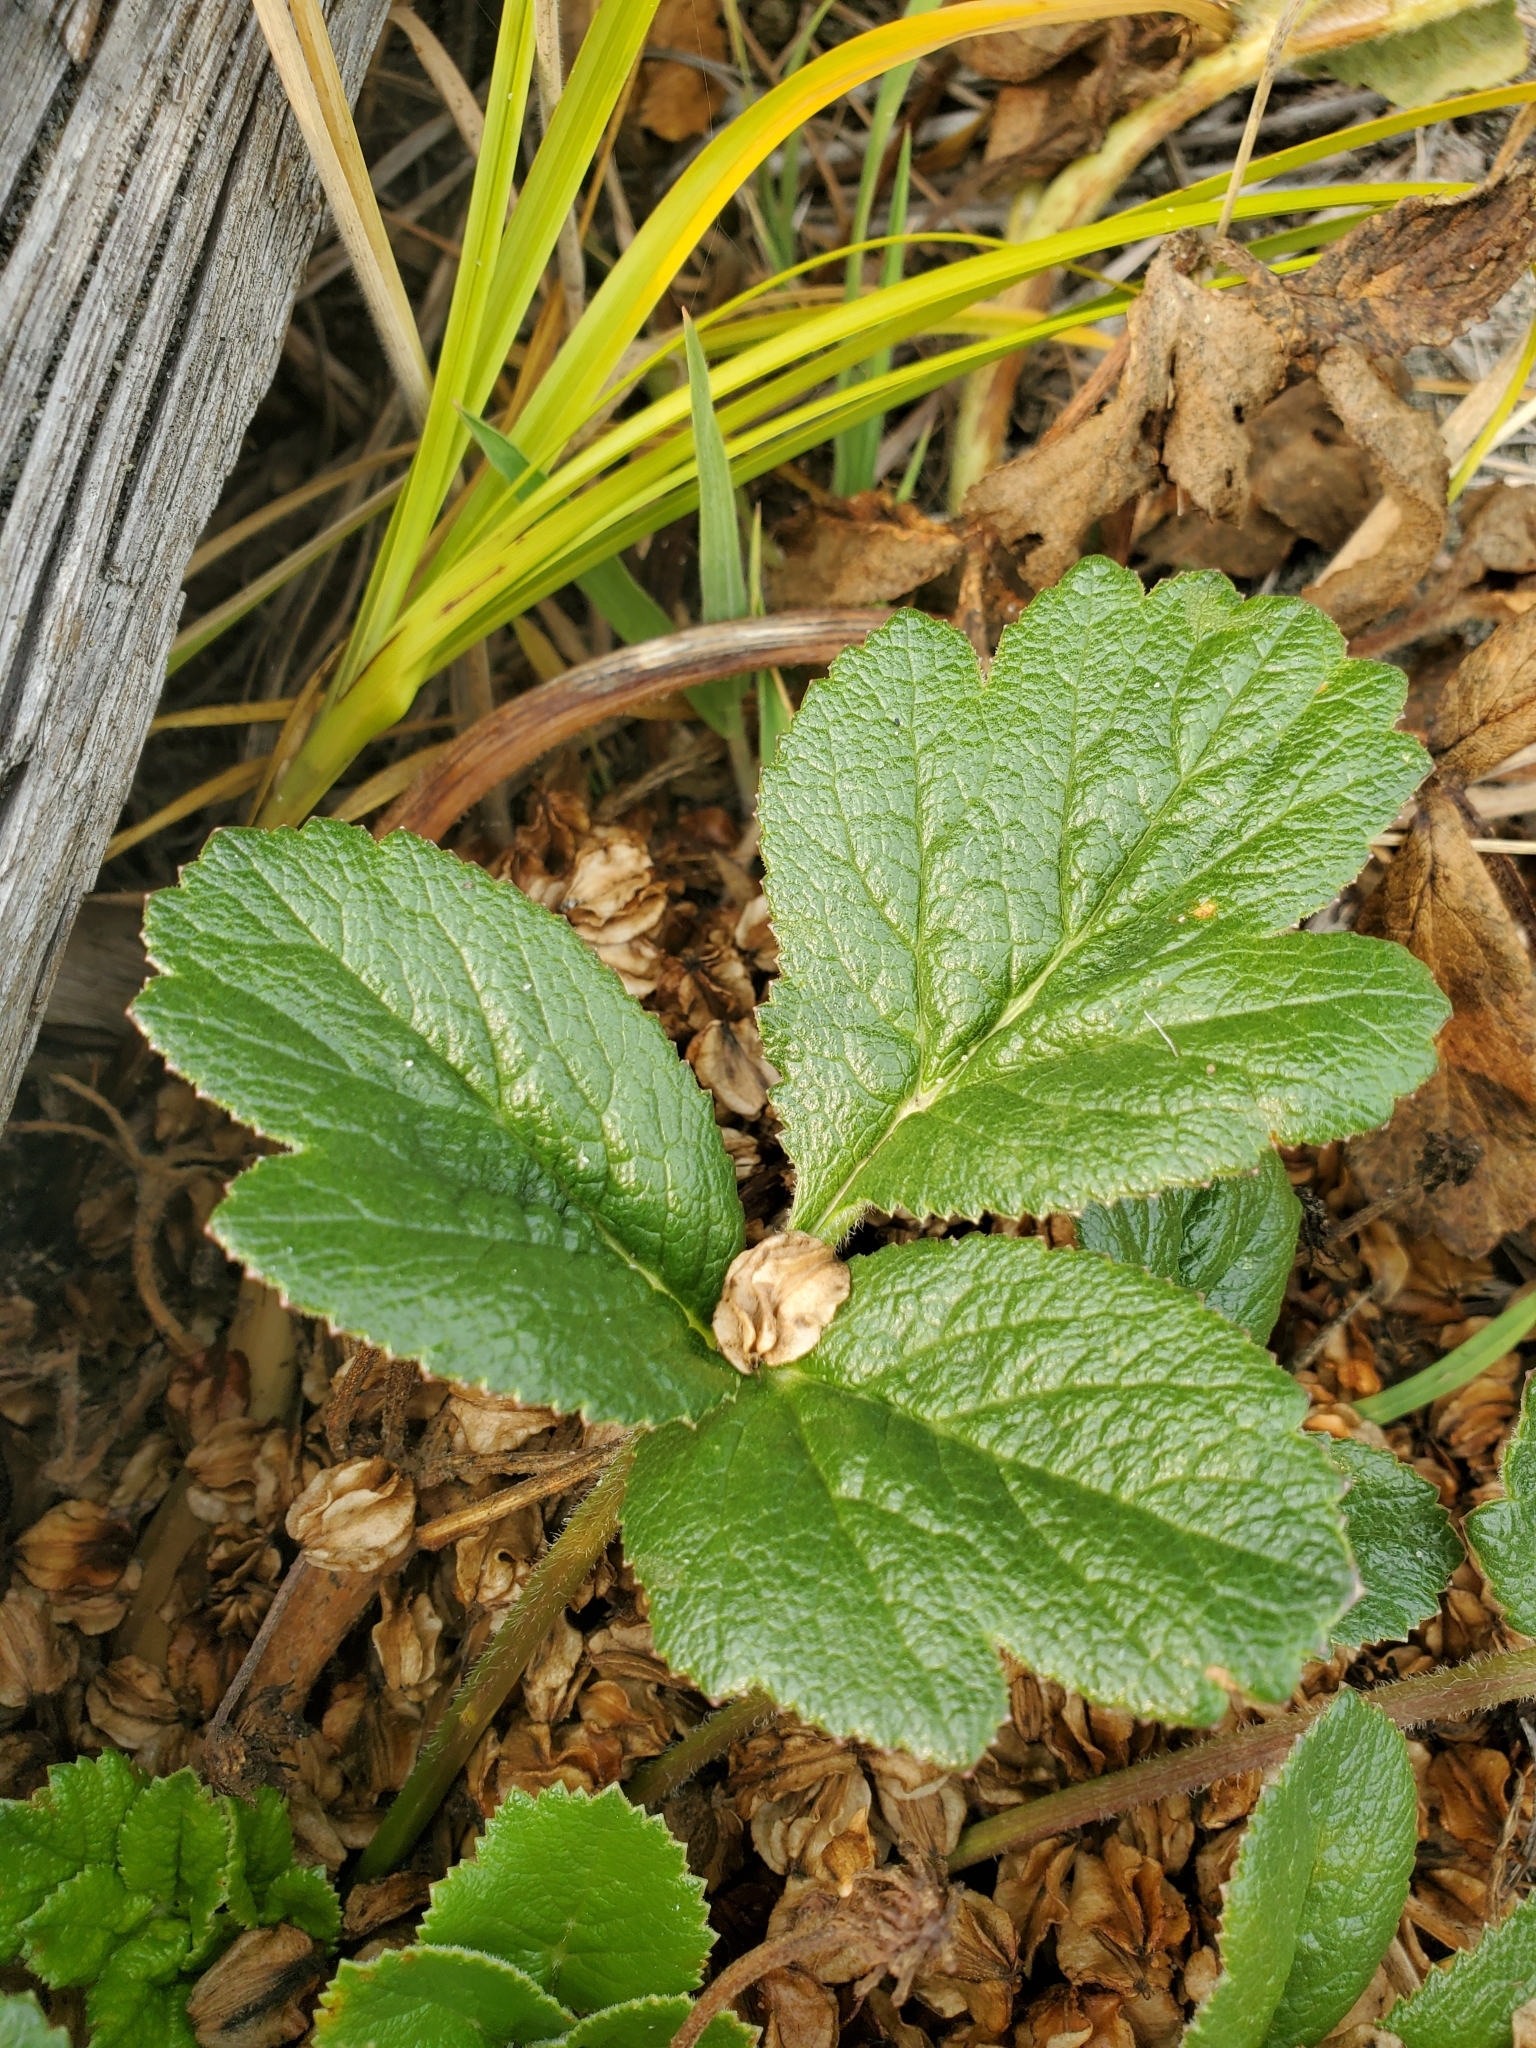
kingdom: Plantae
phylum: Tracheophyta
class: Magnoliopsida
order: Apiales
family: Apiaceae
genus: Glehnia
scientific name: Glehnia littoralis
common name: Beach silvertop
